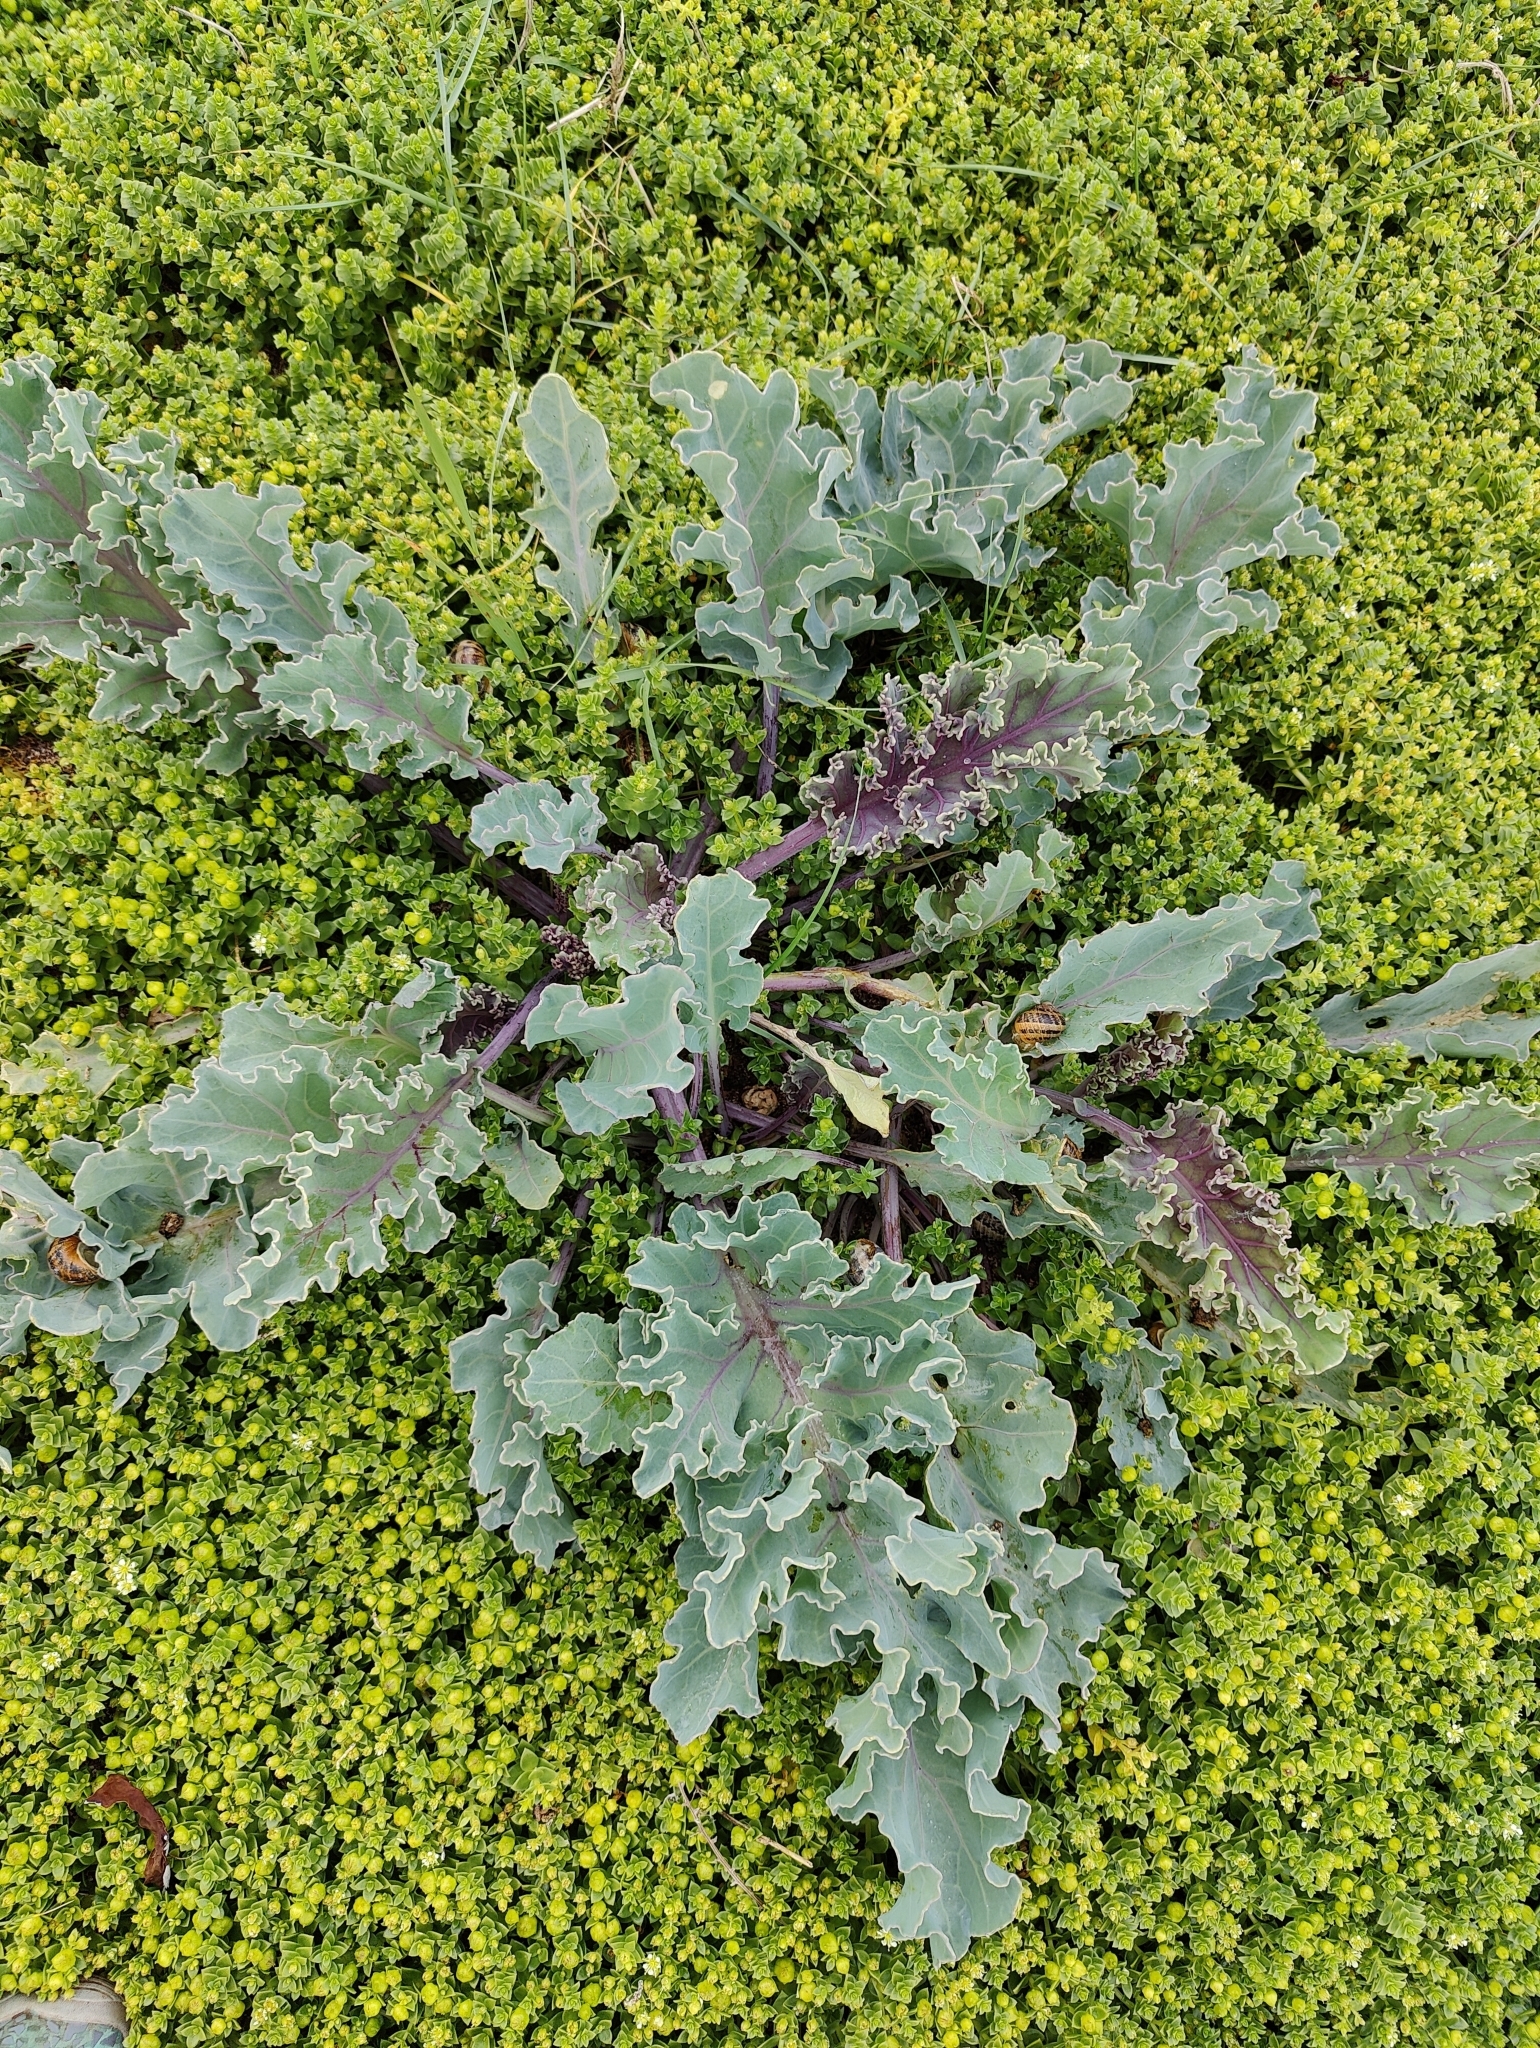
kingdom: Plantae
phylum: Tracheophyta
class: Magnoliopsida
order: Brassicales
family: Brassicaceae
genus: Crambe
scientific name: Crambe maritima
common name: Sea-kale
